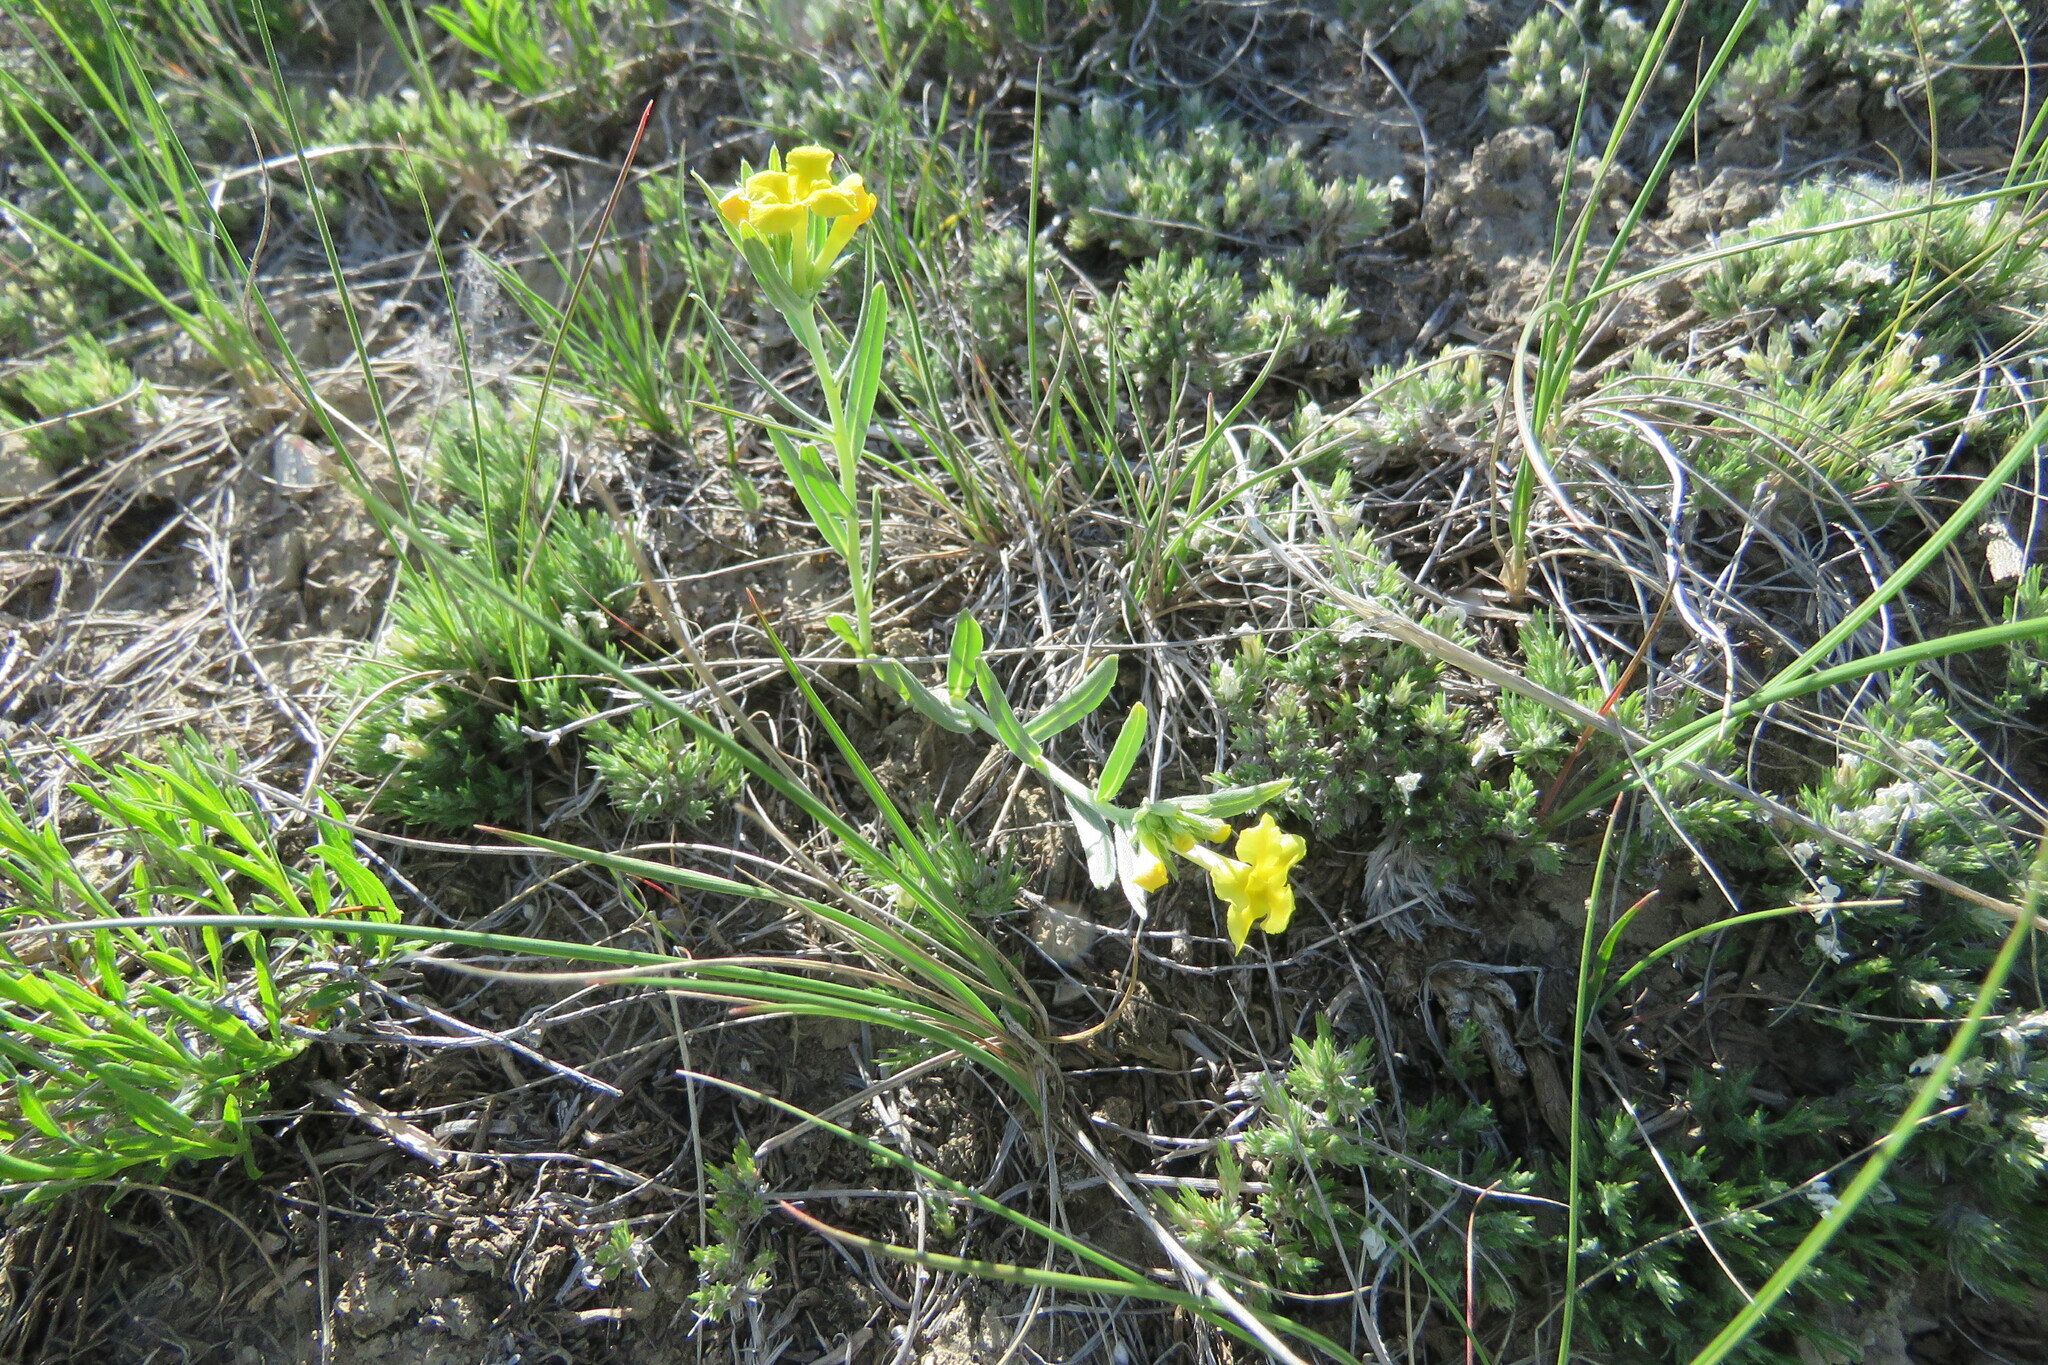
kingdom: Plantae
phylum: Tracheophyta
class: Magnoliopsida
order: Boraginales
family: Boraginaceae
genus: Lithospermum
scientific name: Lithospermum incisum
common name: Fringed gromwell
